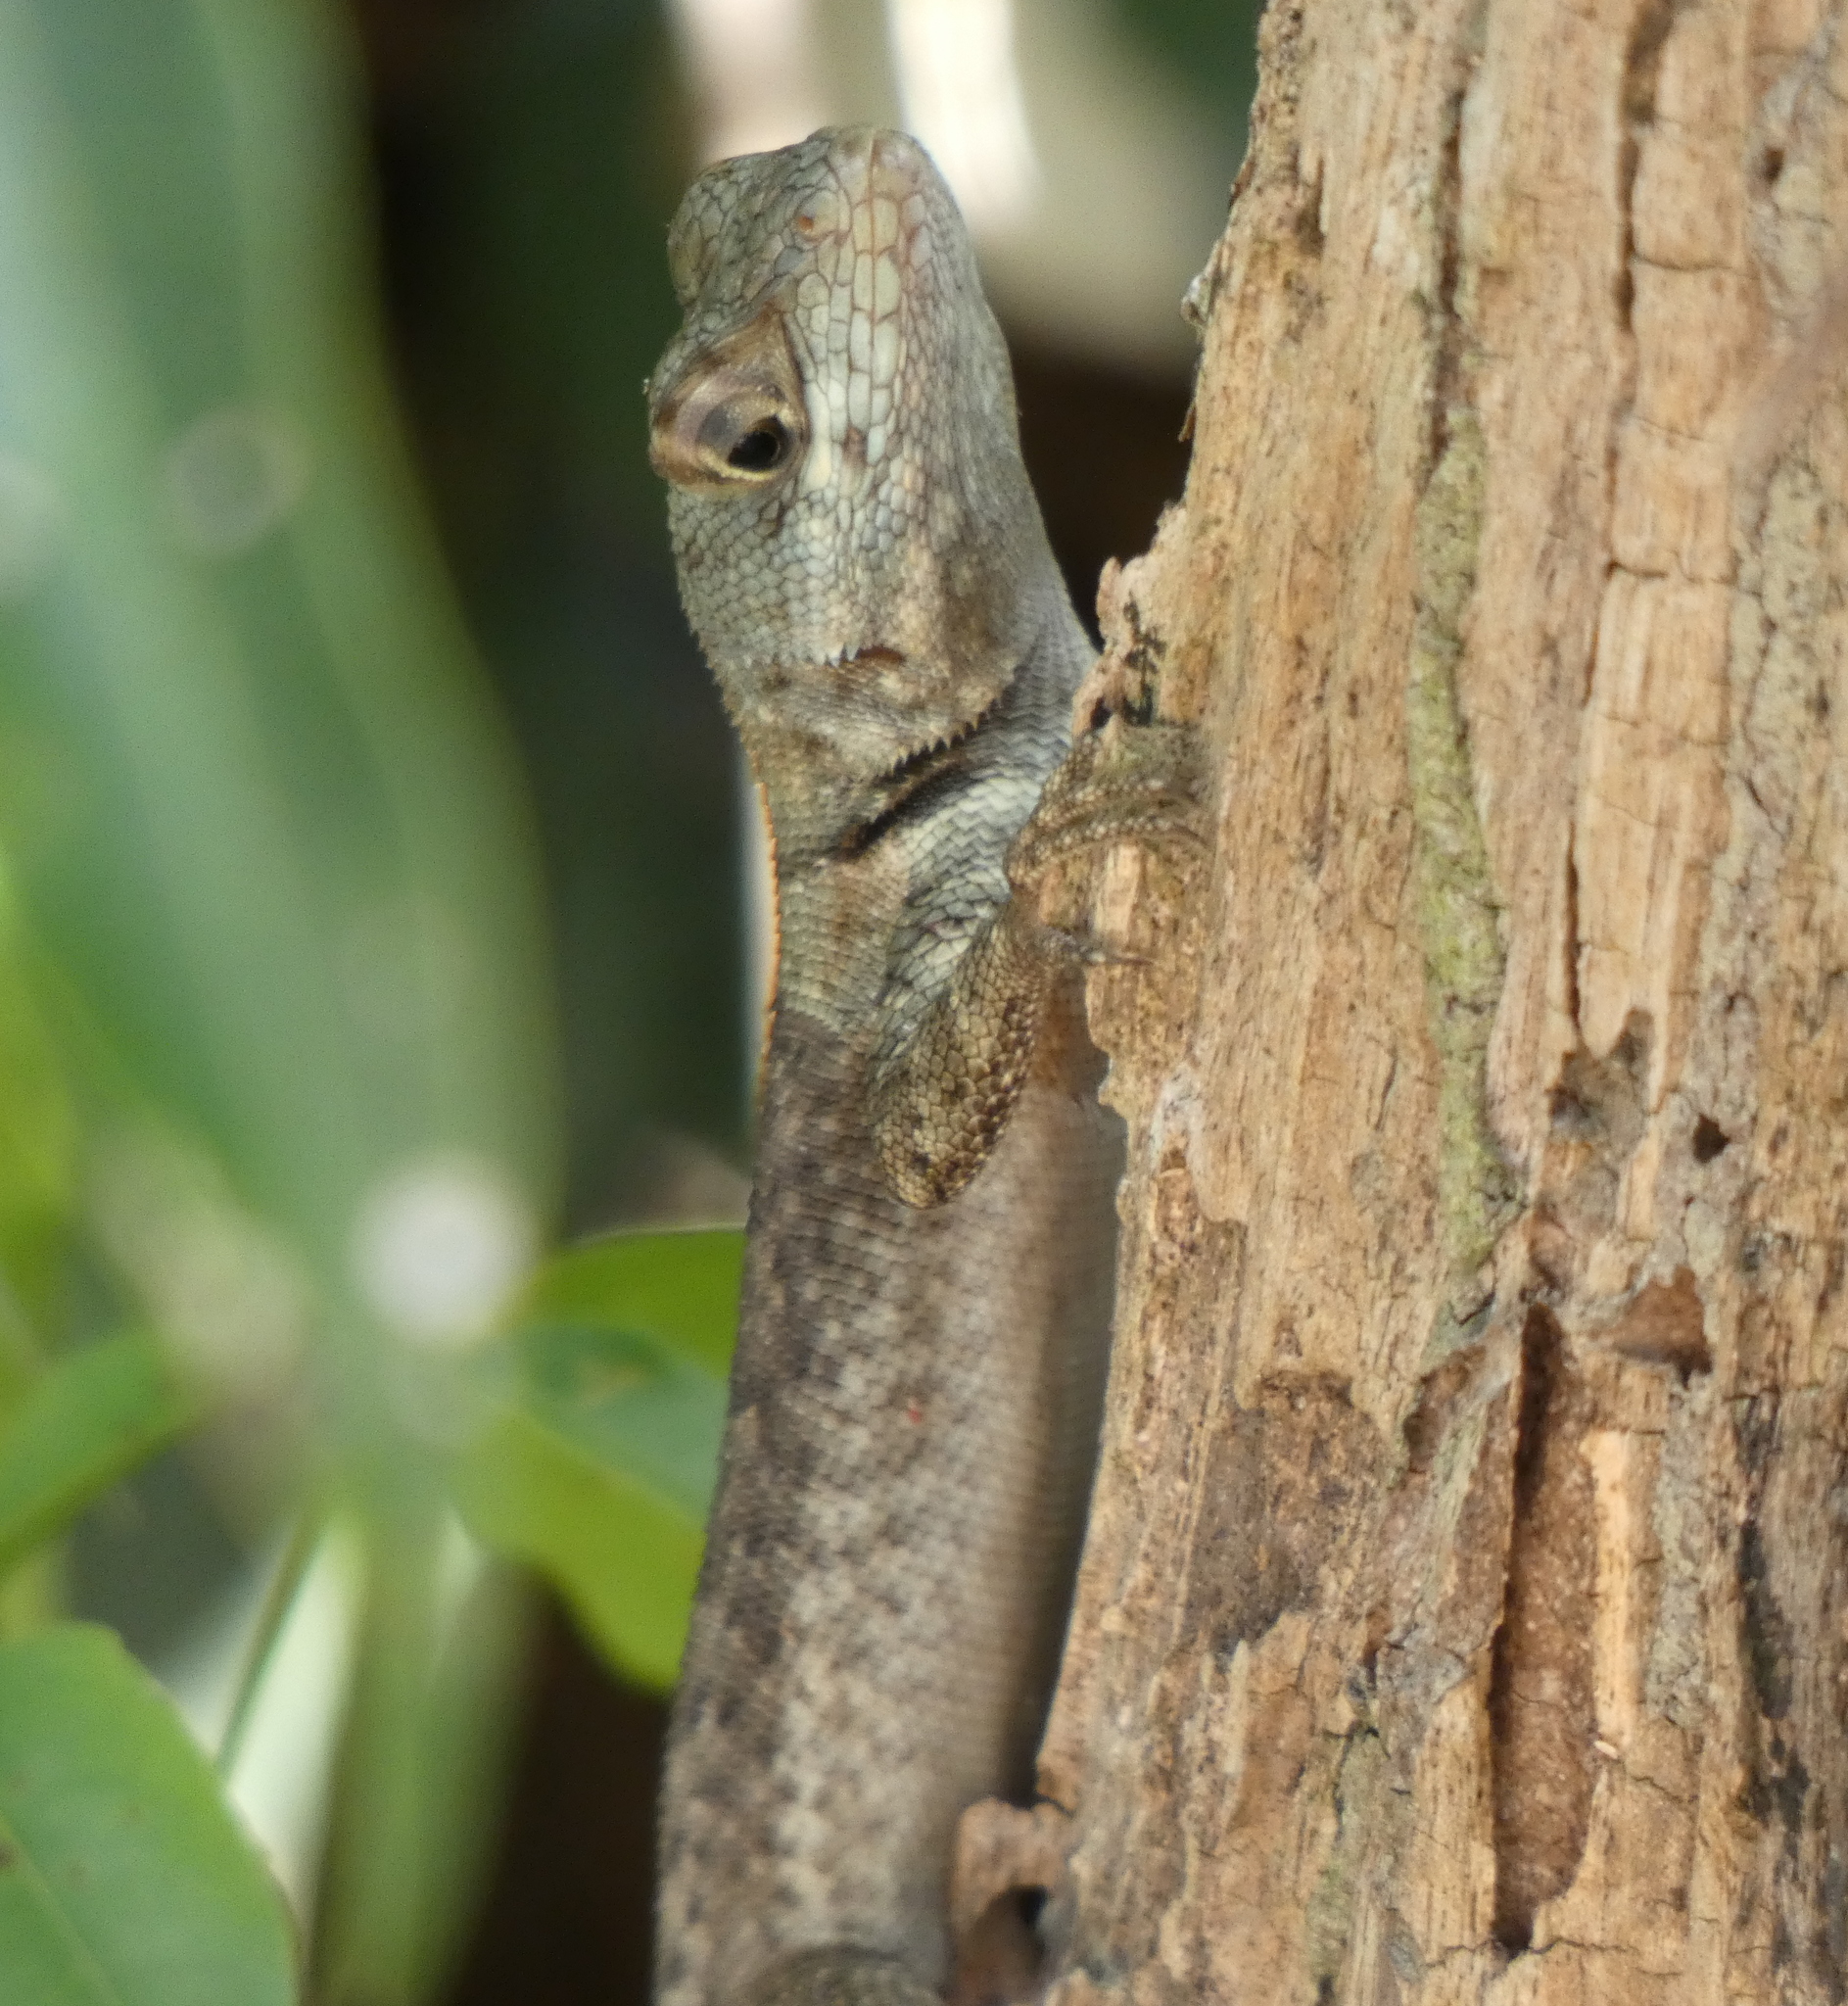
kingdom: Animalia
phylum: Chordata
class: Squamata
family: Tropiduridae
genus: Tropidurus
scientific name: Tropidurus hispidus
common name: Peters' lava lizard
